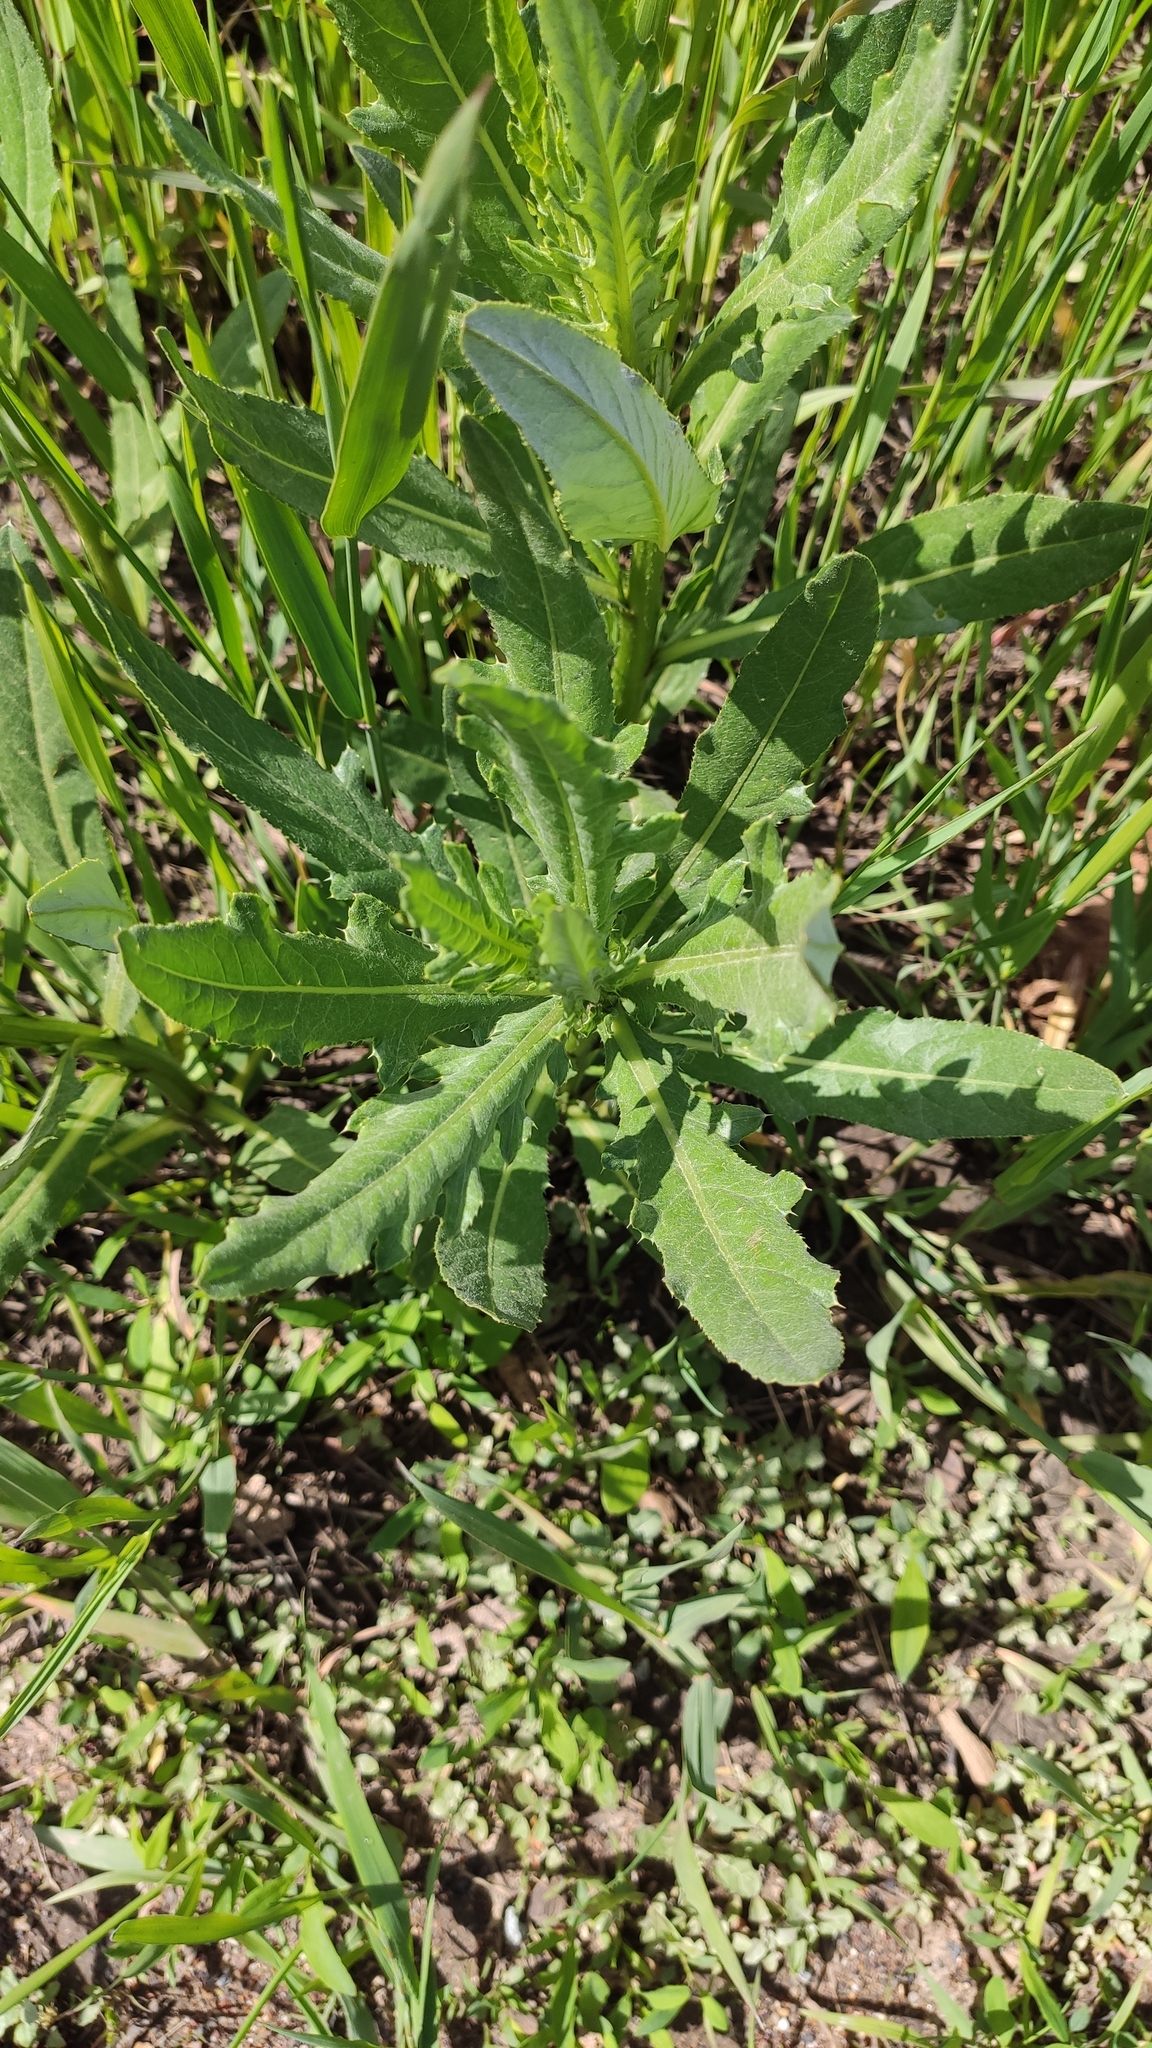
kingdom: Plantae
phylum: Tracheophyta
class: Magnoliopsida
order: Asterales
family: Asteraceae
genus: Cirsium
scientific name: Cirsium arvense
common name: Creeping thistle
